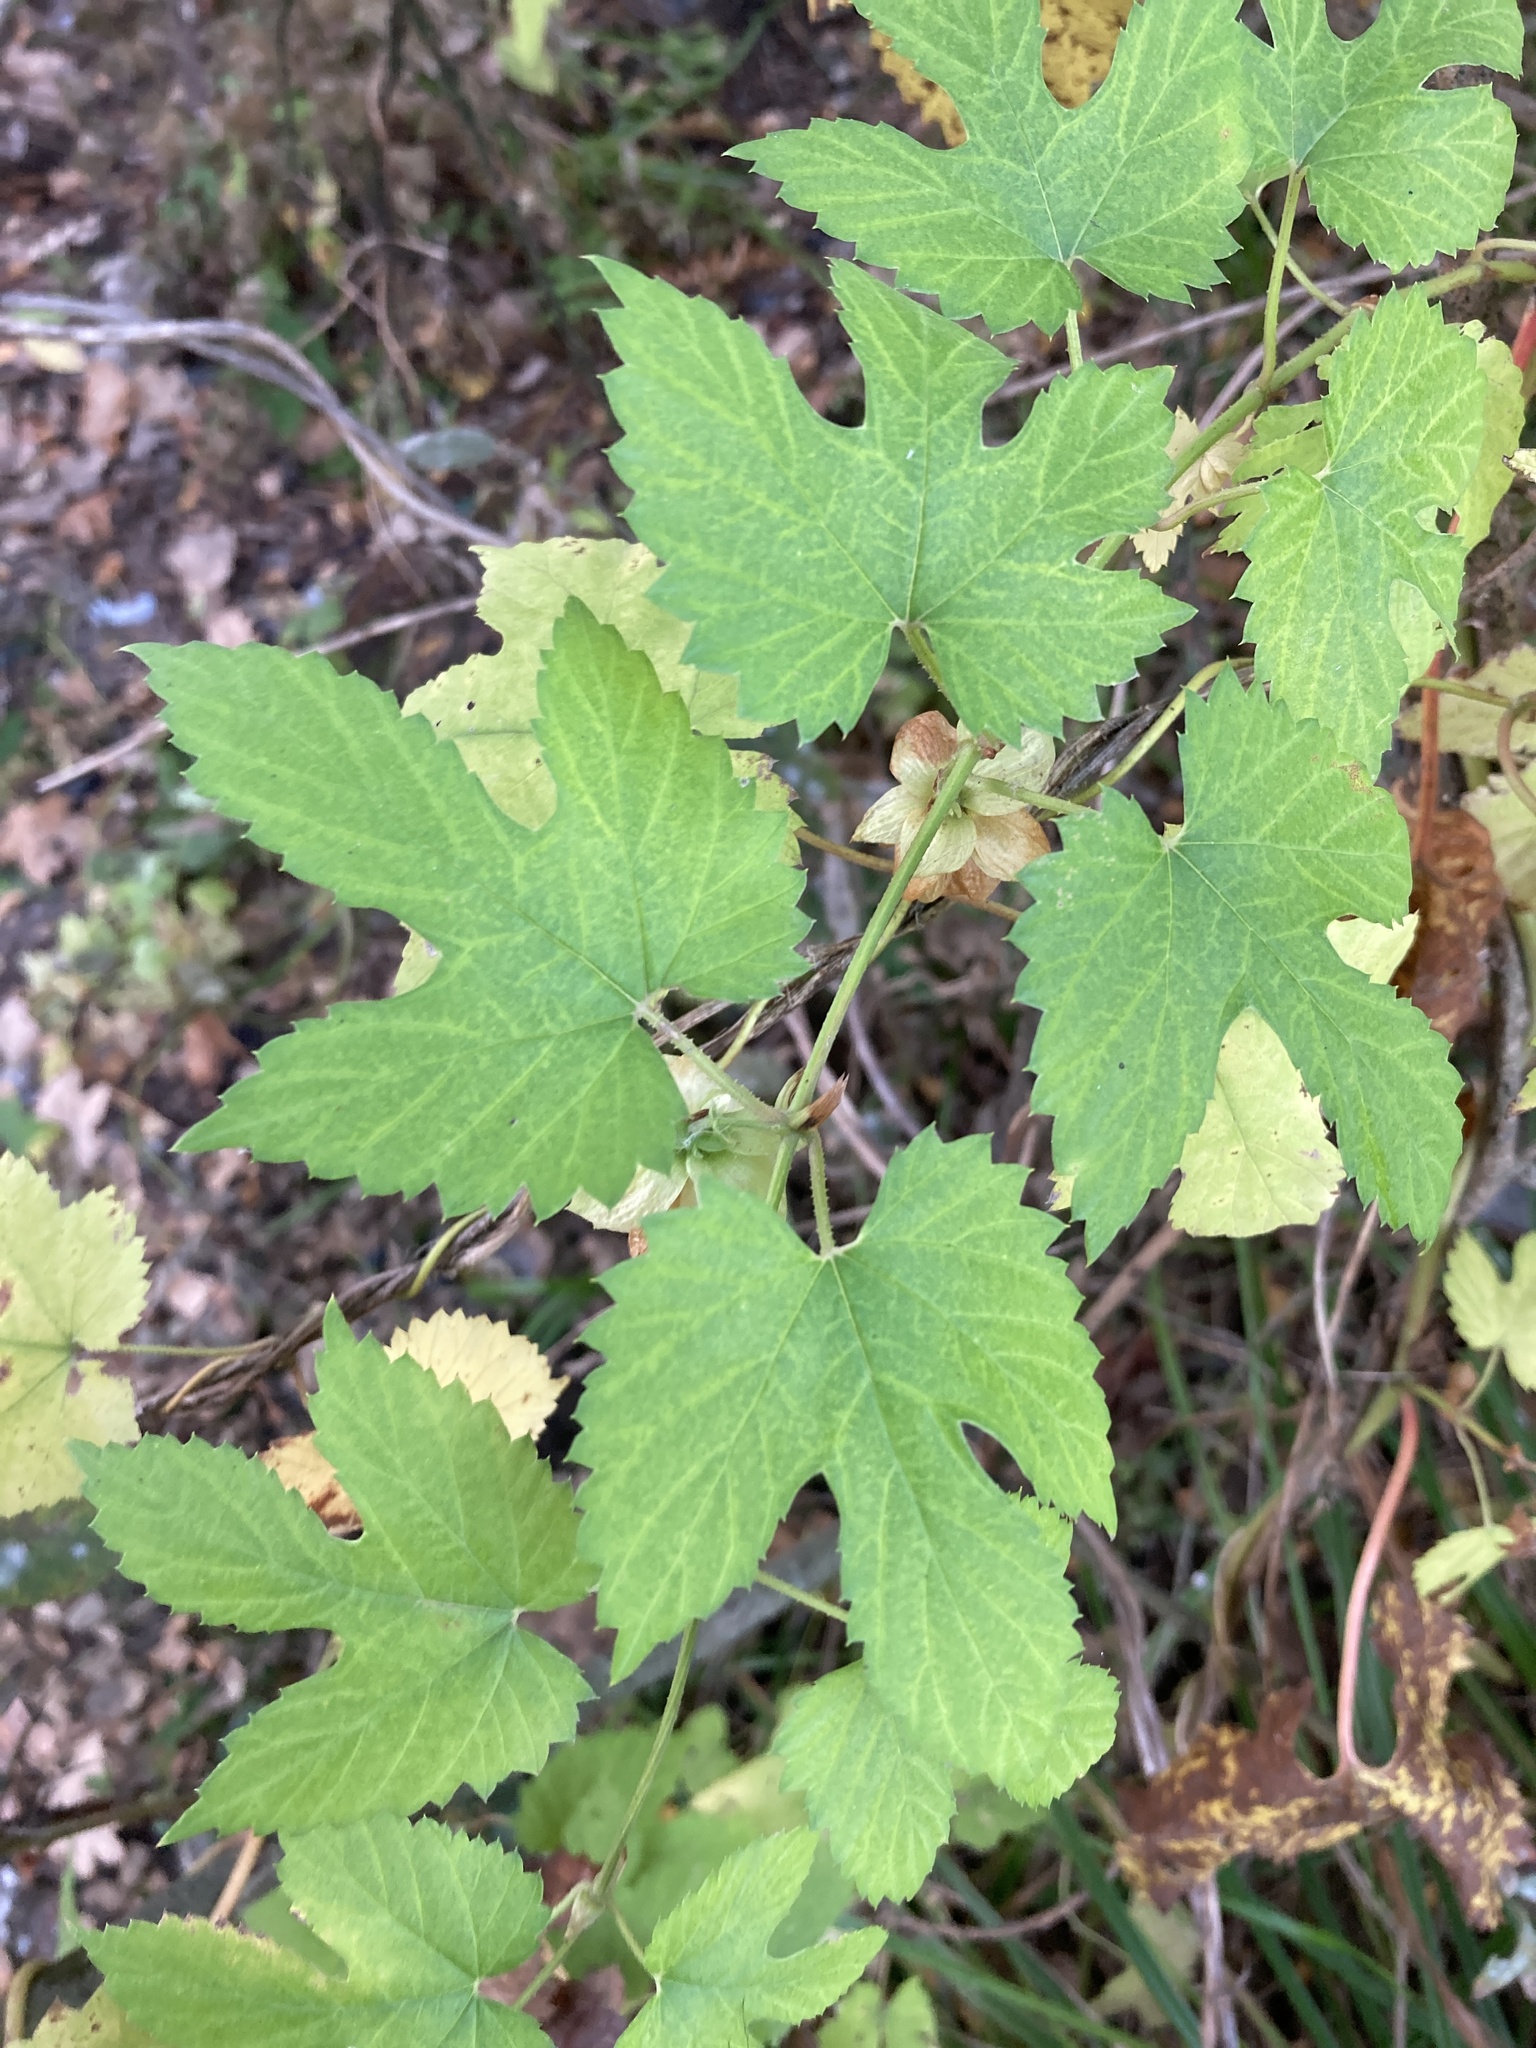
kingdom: Plantae
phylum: Tracheophyta
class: Magnoliopsida
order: Rosales
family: Cannabaceae
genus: Humulus
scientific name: Humulus lupulus
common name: Hop
